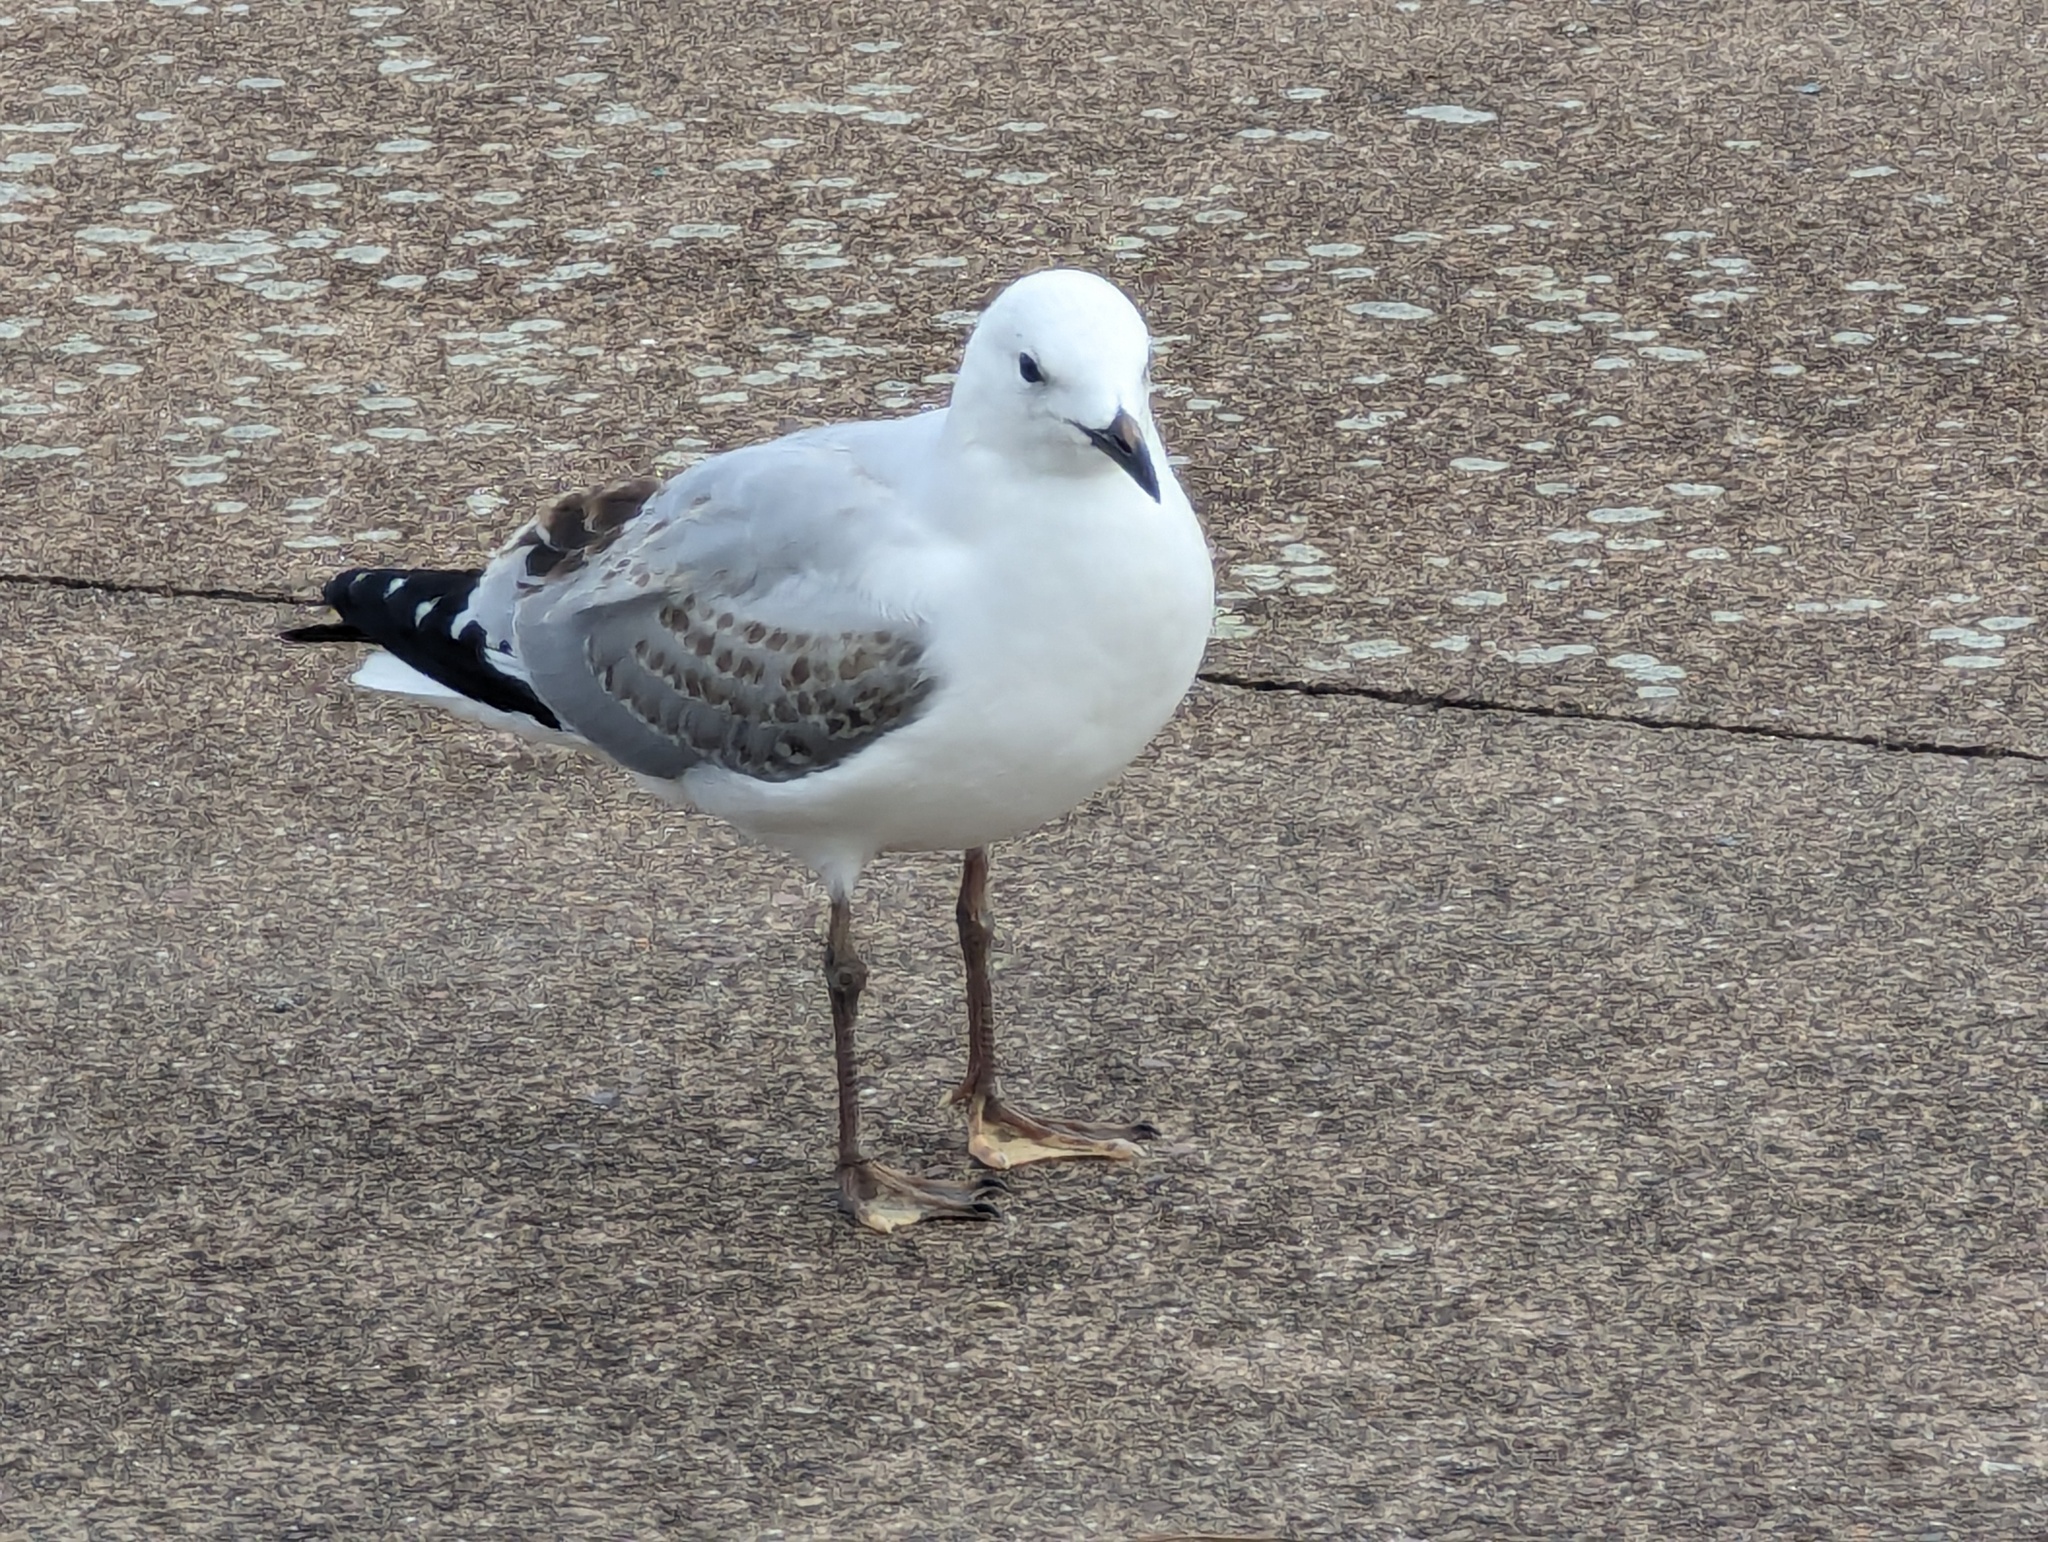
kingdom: Animalia
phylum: Chordata
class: Aves
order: Charadriiformes
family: Laridae
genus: Chroicocephalus
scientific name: Chroicocephalus novaehollandiae
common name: Silver gull
